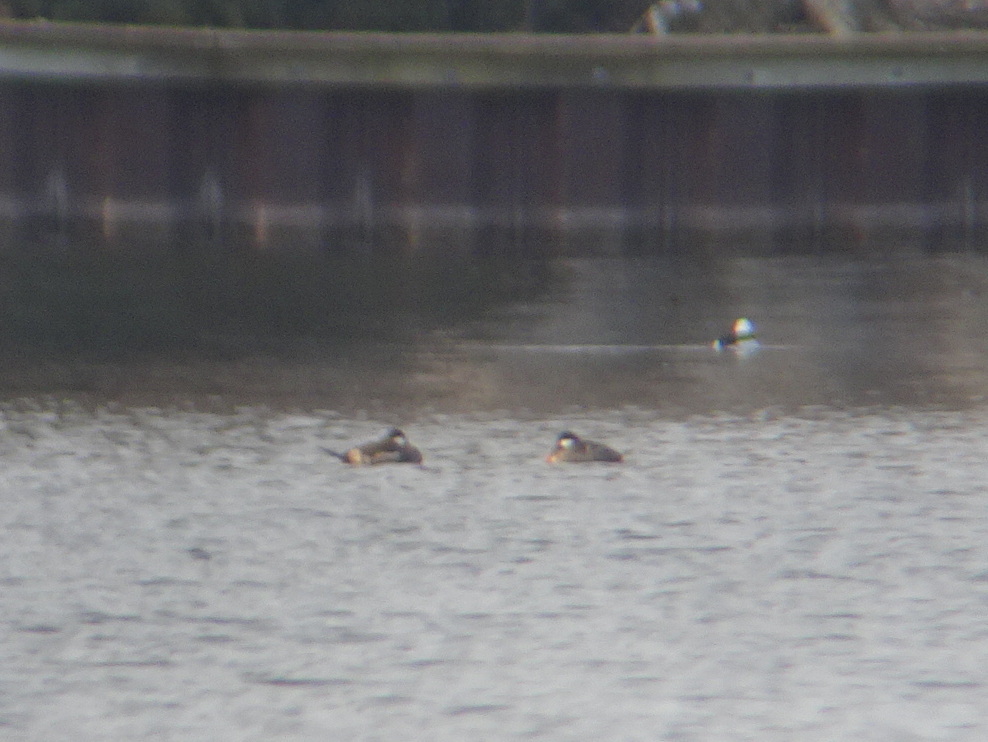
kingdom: Animalia
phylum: Chordata
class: Aves
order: Anseriformes
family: Anatidae
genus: Oxyura
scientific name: Oxyura jamaicensis
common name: Ruddy duck
